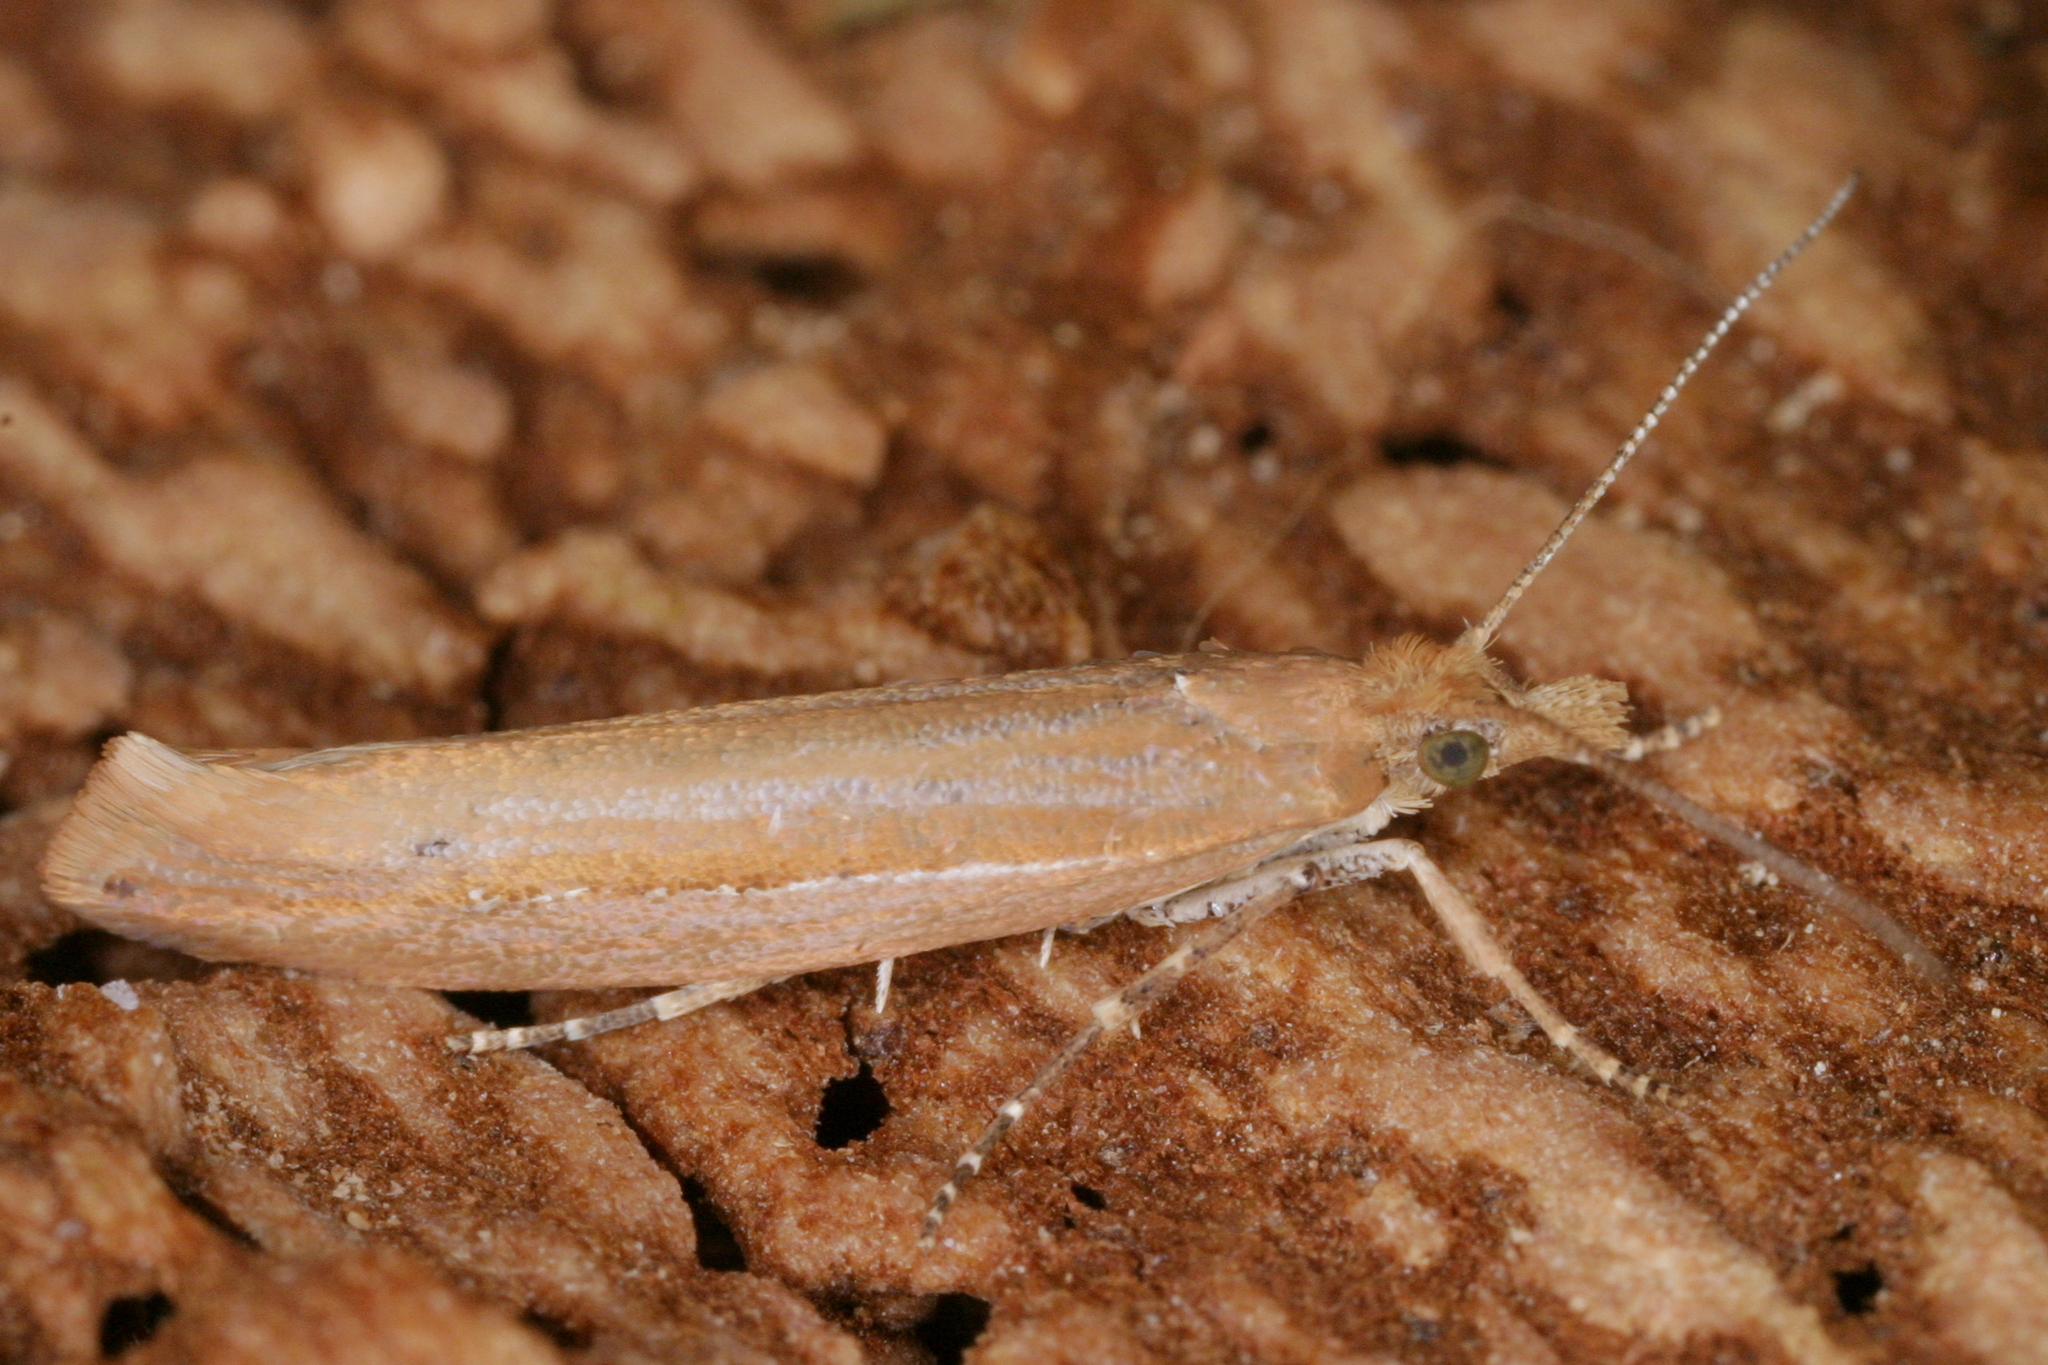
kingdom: Animalia
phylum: Arthropoda
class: Insecta
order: Lepidoptera
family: Plutellidae
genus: Ypsolophus
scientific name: Ypsolophus ustella
